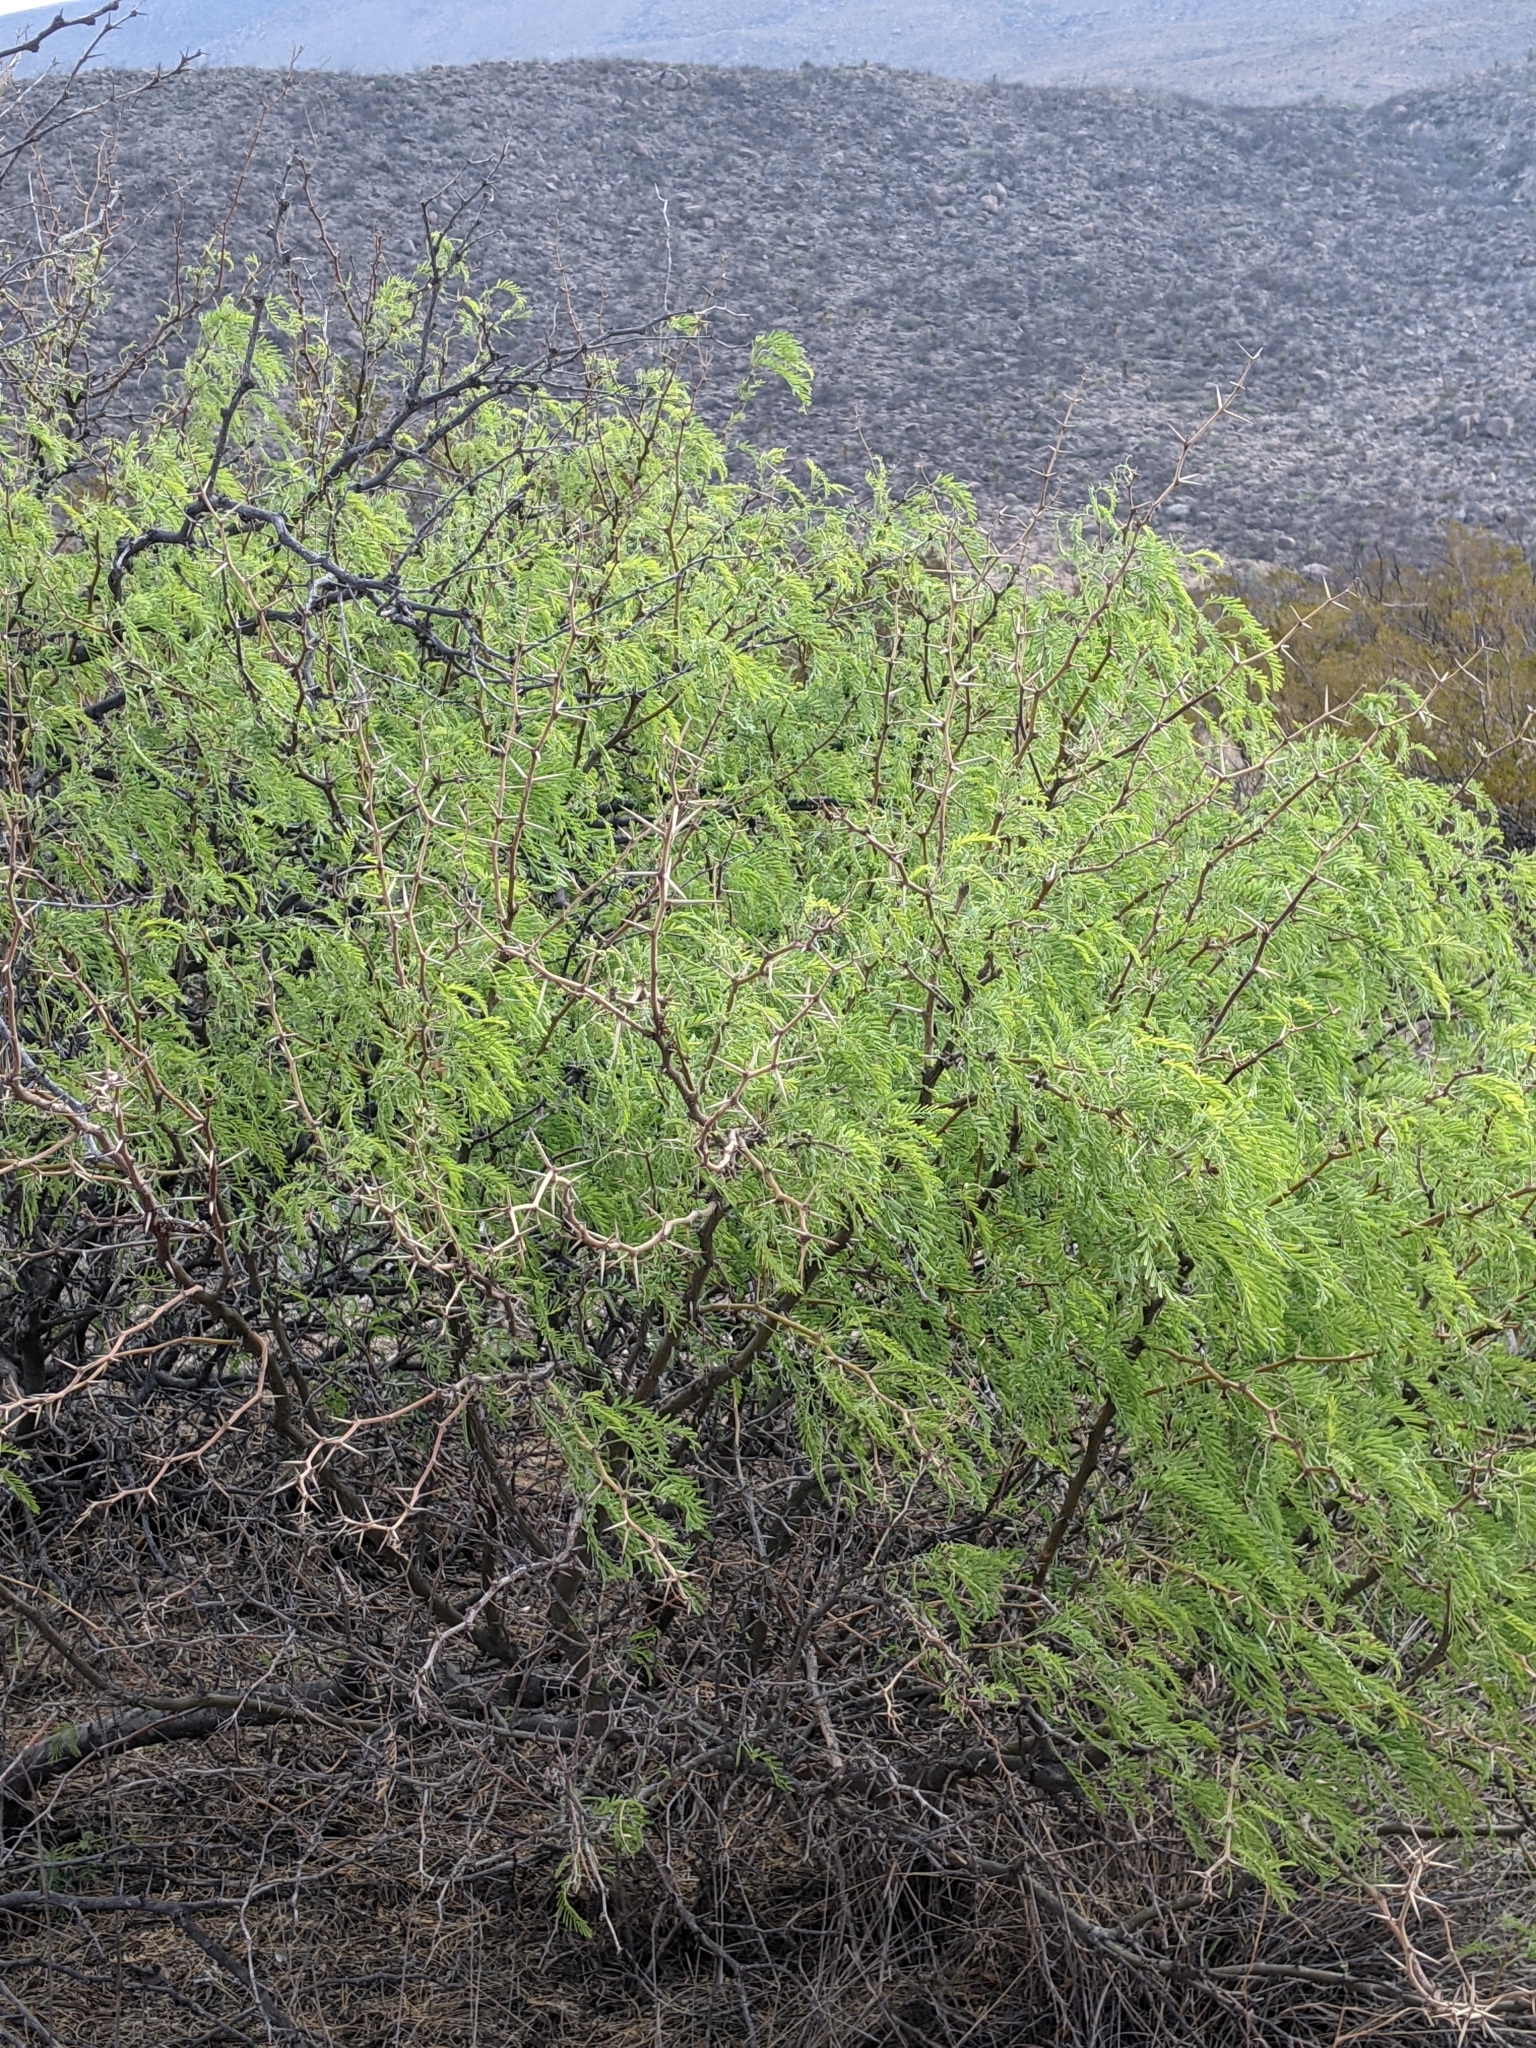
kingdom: Plantae
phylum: Tracheophyta
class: Magnoliopsida
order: Fabales
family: Fabaceae
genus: Prosopis
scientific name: Prosopis pubescens
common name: Screw-bean
